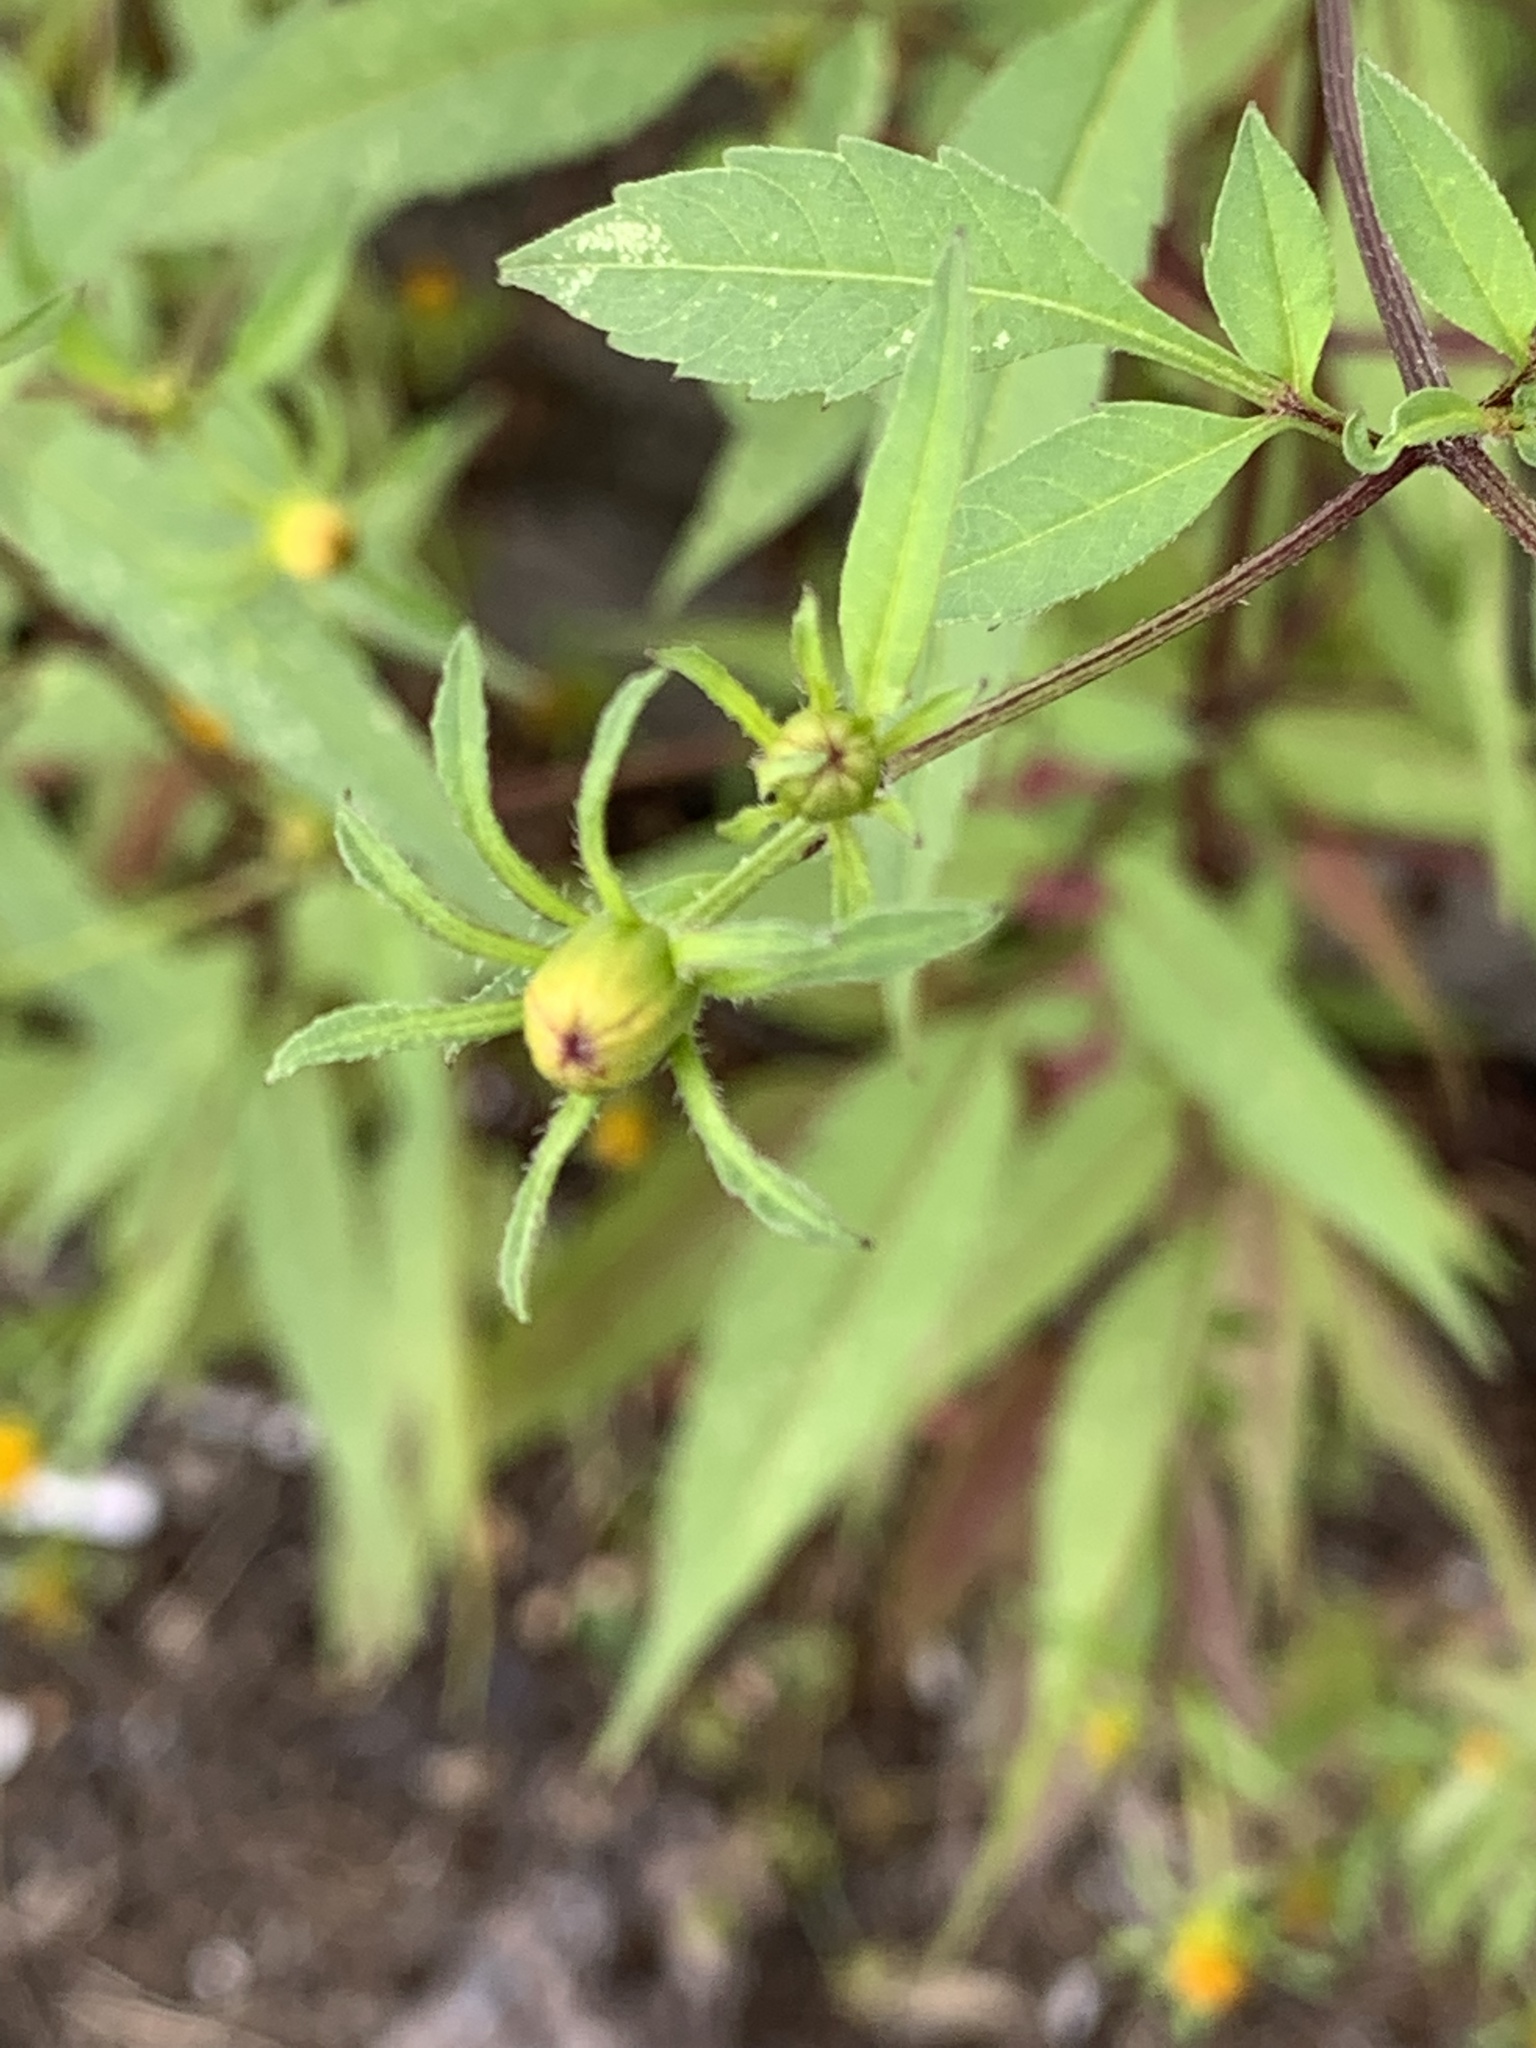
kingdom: Plantae
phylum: Tracheophyta
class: Magnoliopsida
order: Asterales
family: Asteraceae
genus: Bidens
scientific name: Bidens frondosa
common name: Beggarticks
